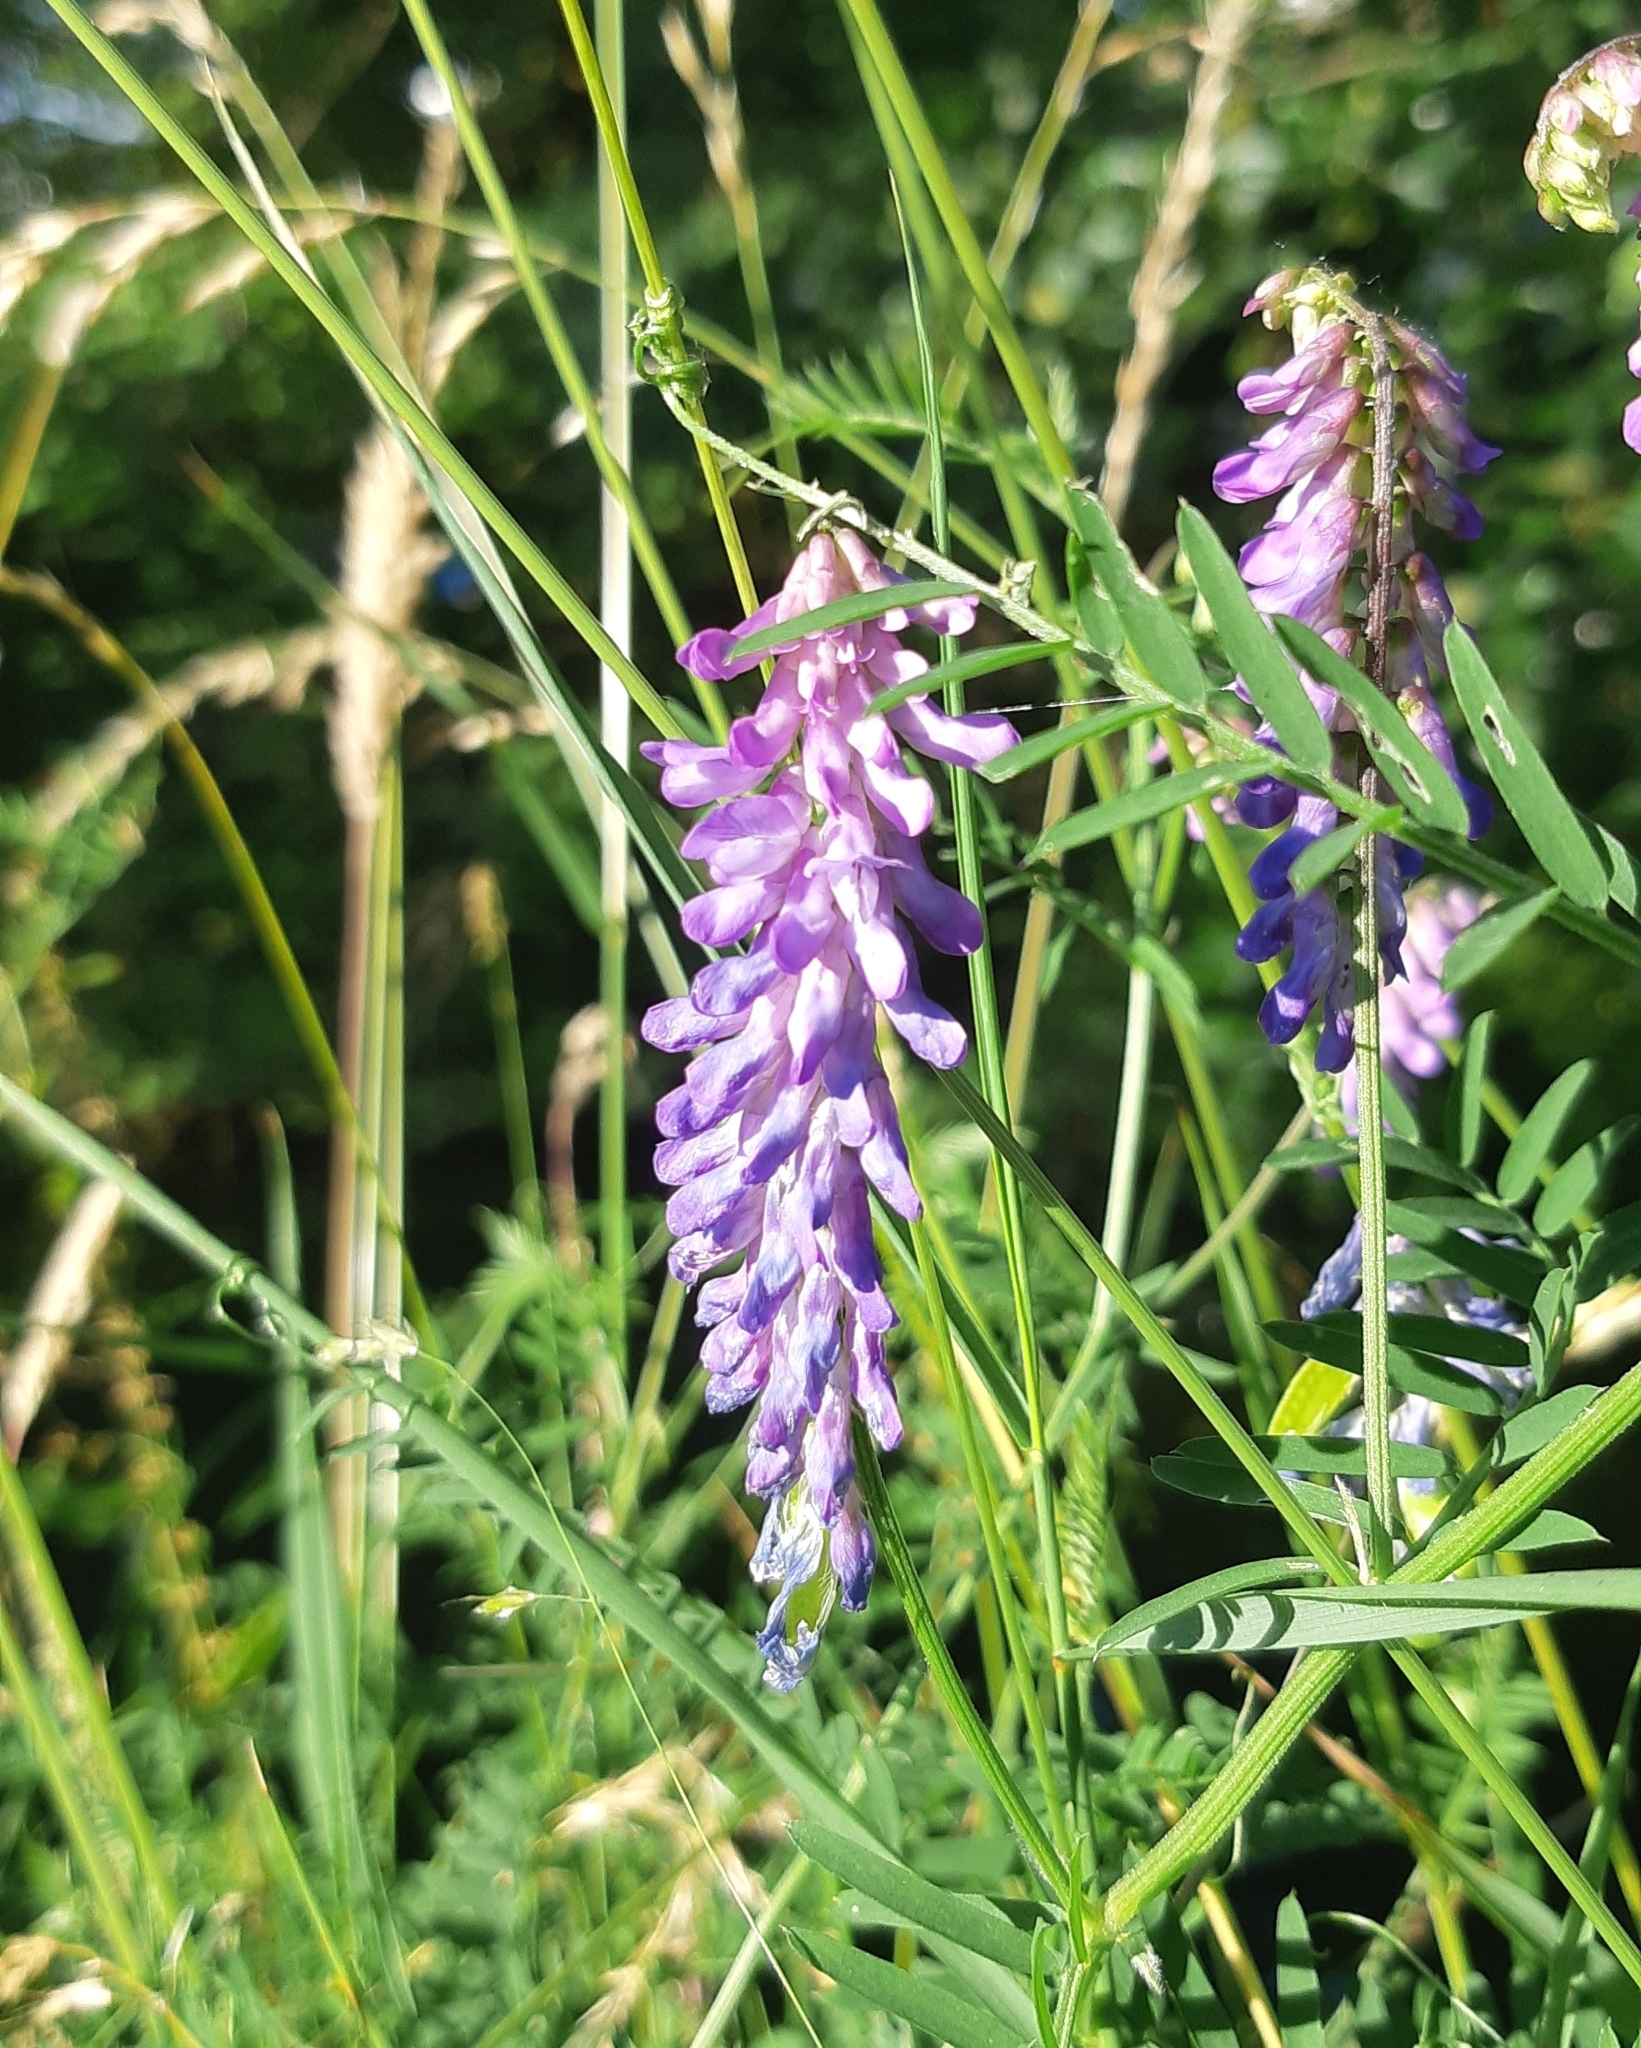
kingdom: Plantae
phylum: Tracheophyta
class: Magnoliopsida
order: Fabales
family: Fabaceae
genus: Vicia
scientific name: Vicia cracca
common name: Bird vetch
